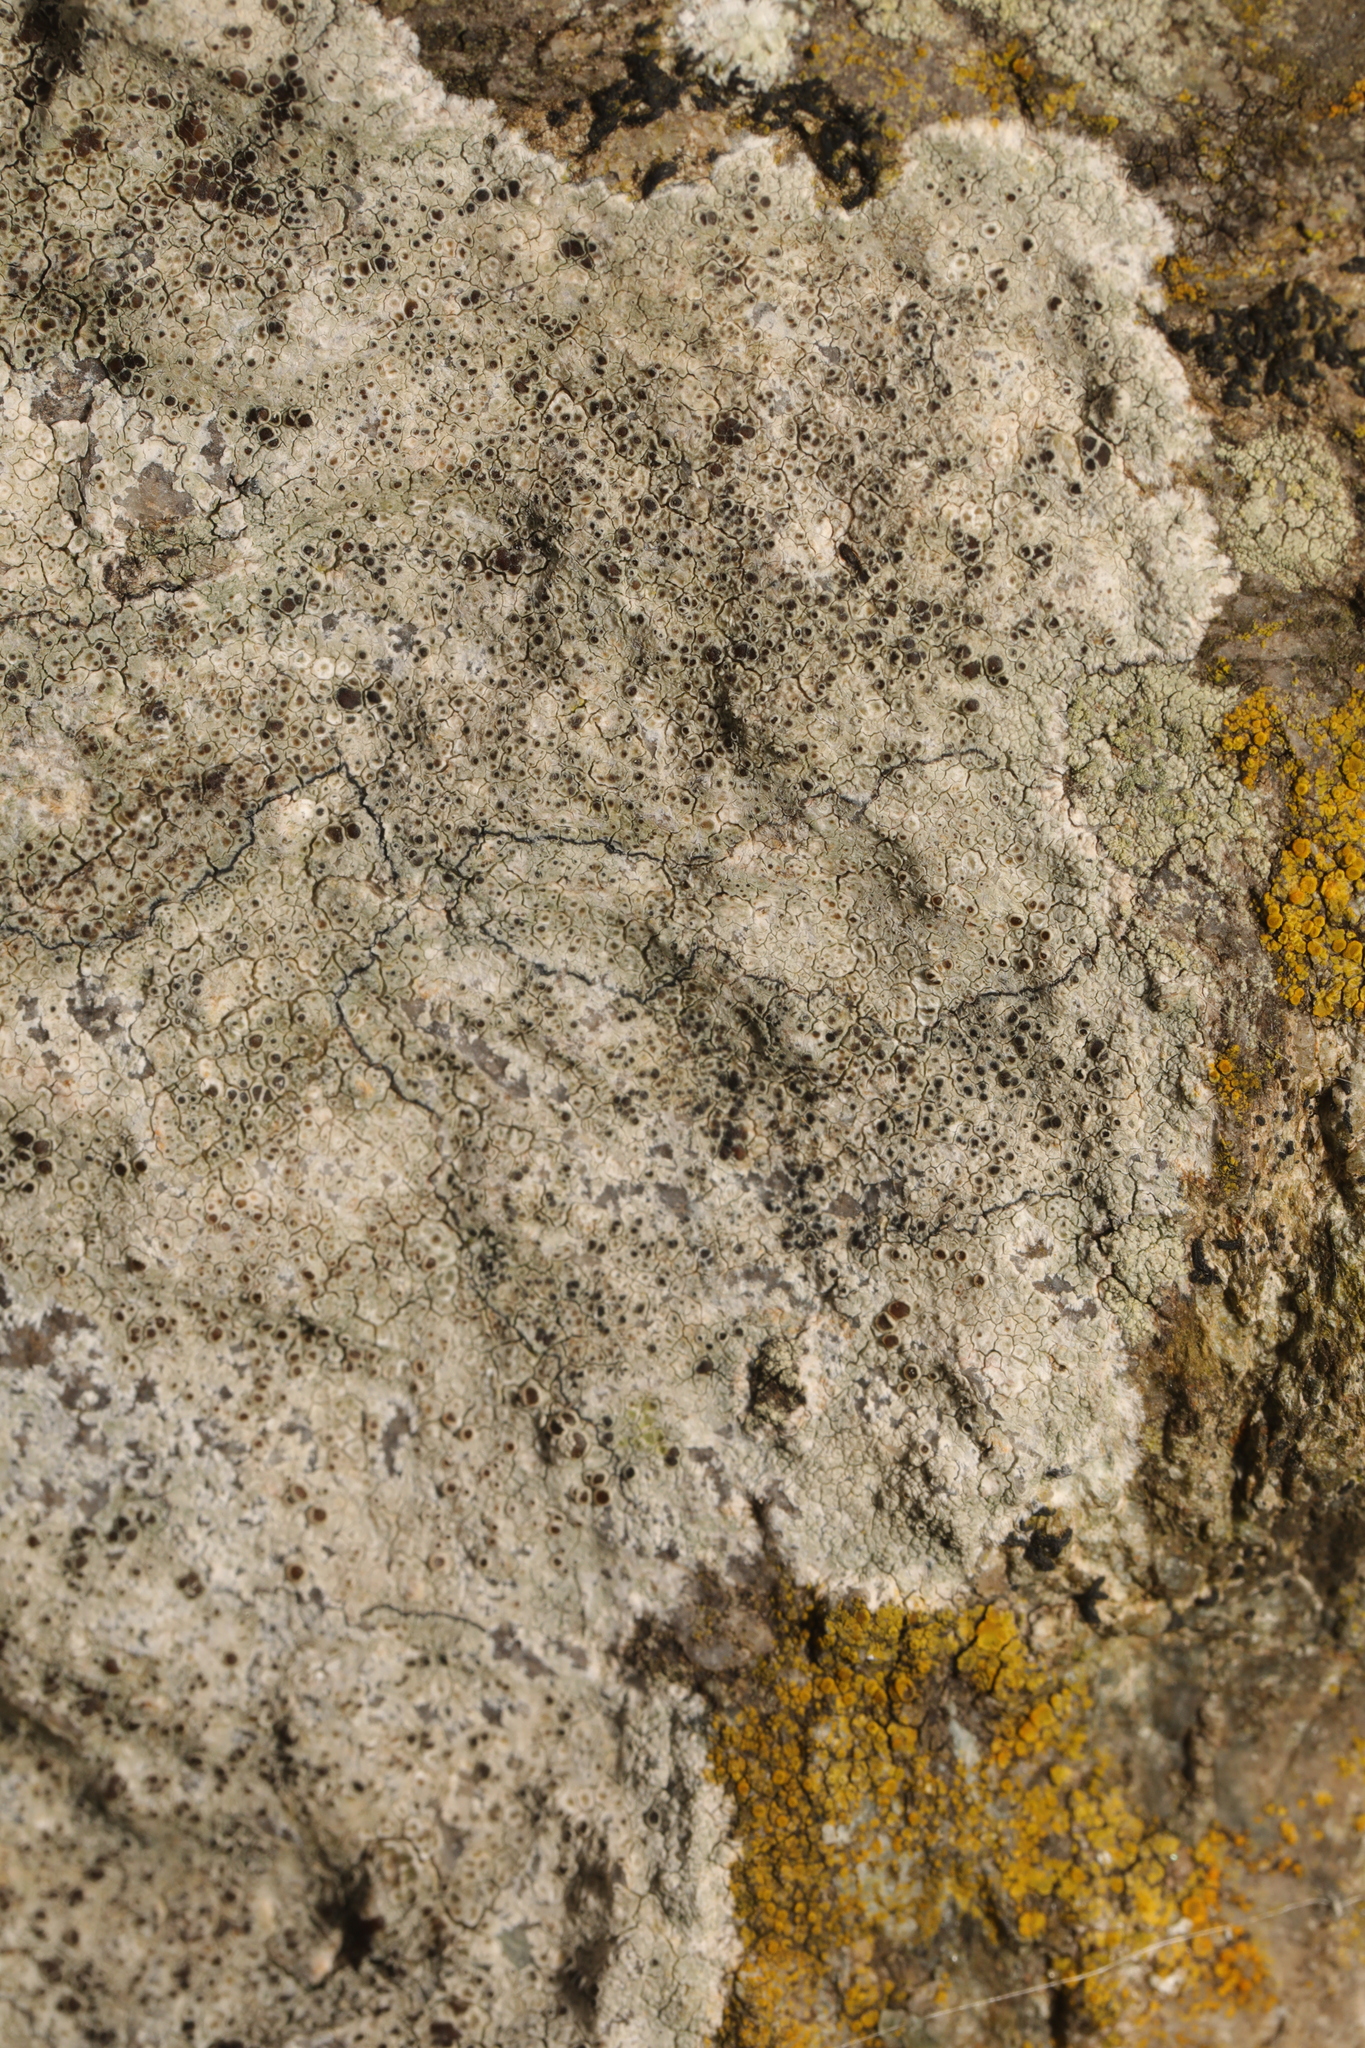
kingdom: Fungi
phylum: Ascomycota
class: Lecanoromycetes
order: Lecanorales
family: Lecanoraceae
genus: Lecanora
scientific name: Lecanora campestris
